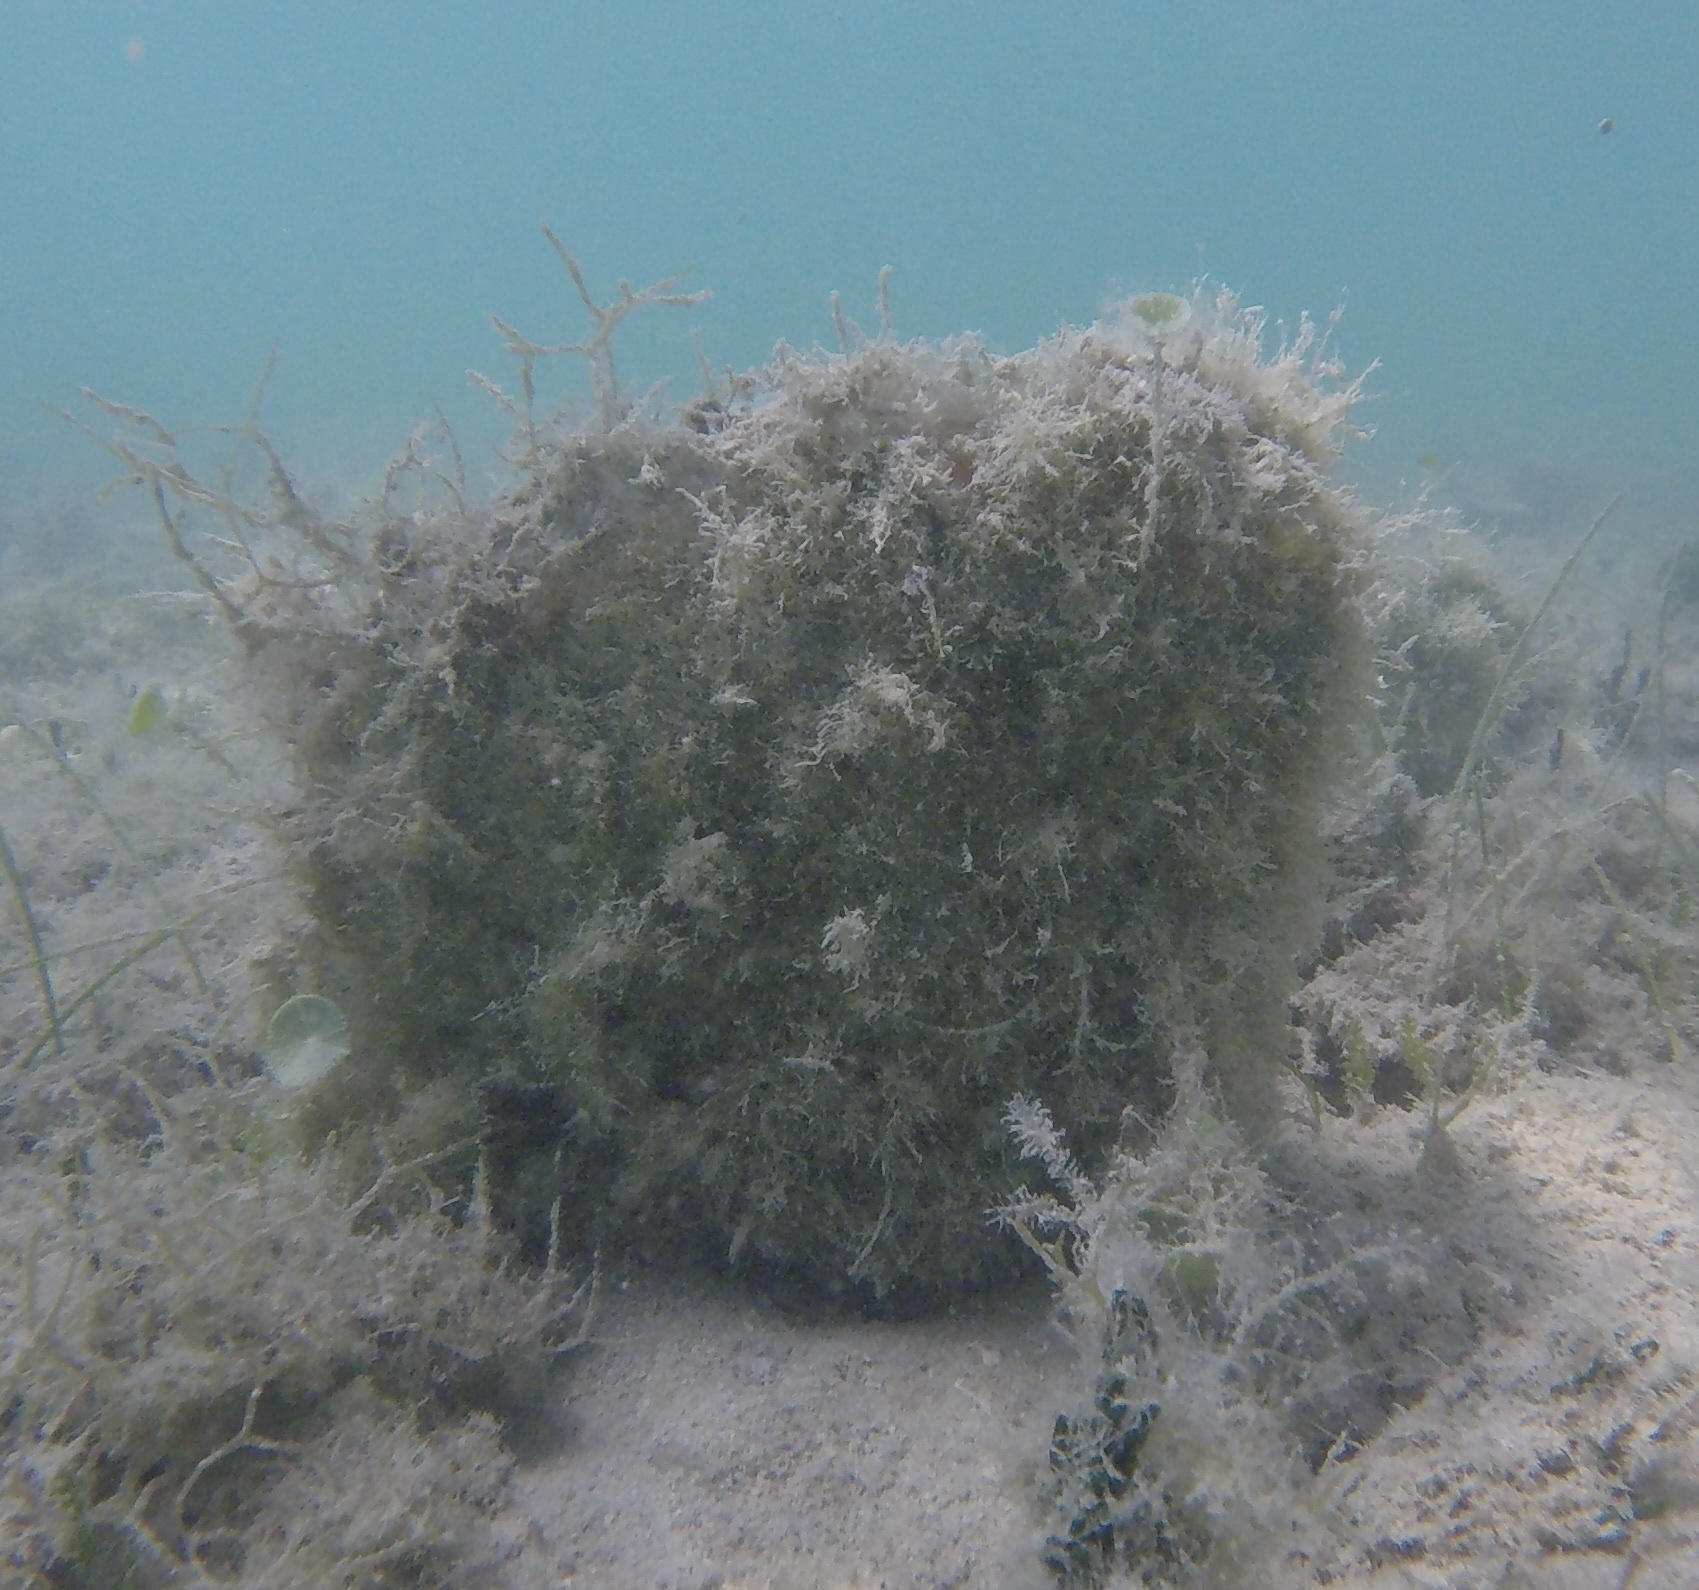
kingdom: Animalia
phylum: Mollusca
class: Bivalvia
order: Ostreida
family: Pinnidae
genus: Pinna
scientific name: Pinna carnea
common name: Amber penshell
